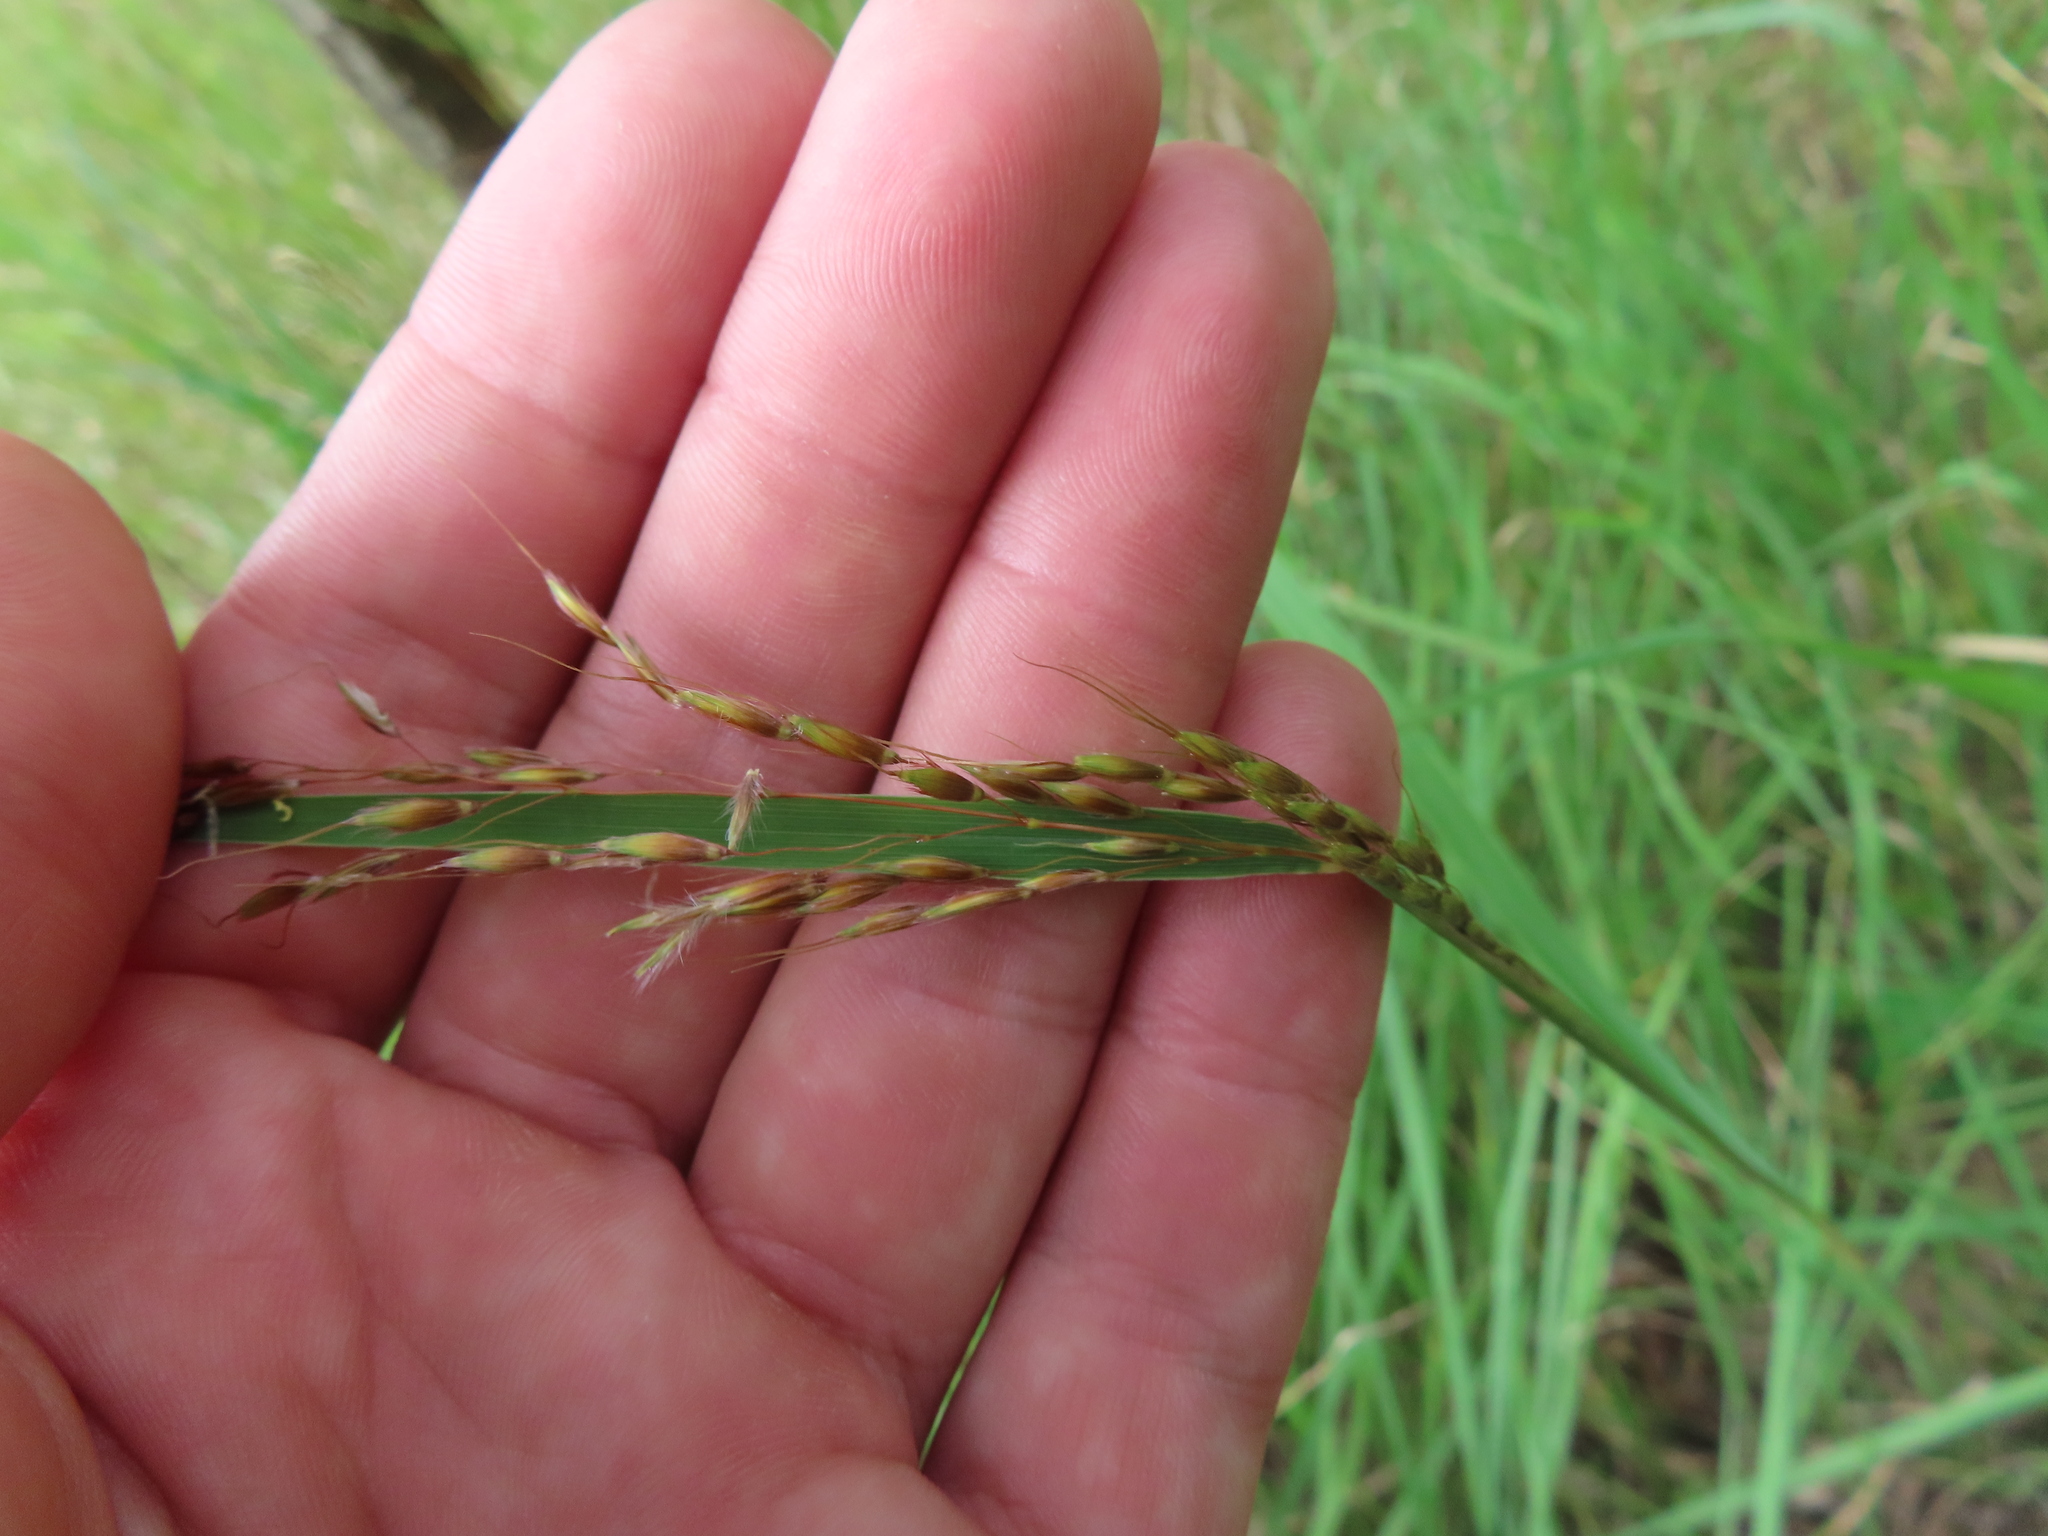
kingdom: Plantae
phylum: Tracheophyta
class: Liliopsida
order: Poales
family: Poaceae
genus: Sorghastrum
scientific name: Sorghastrum nutans
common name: Indian grass
